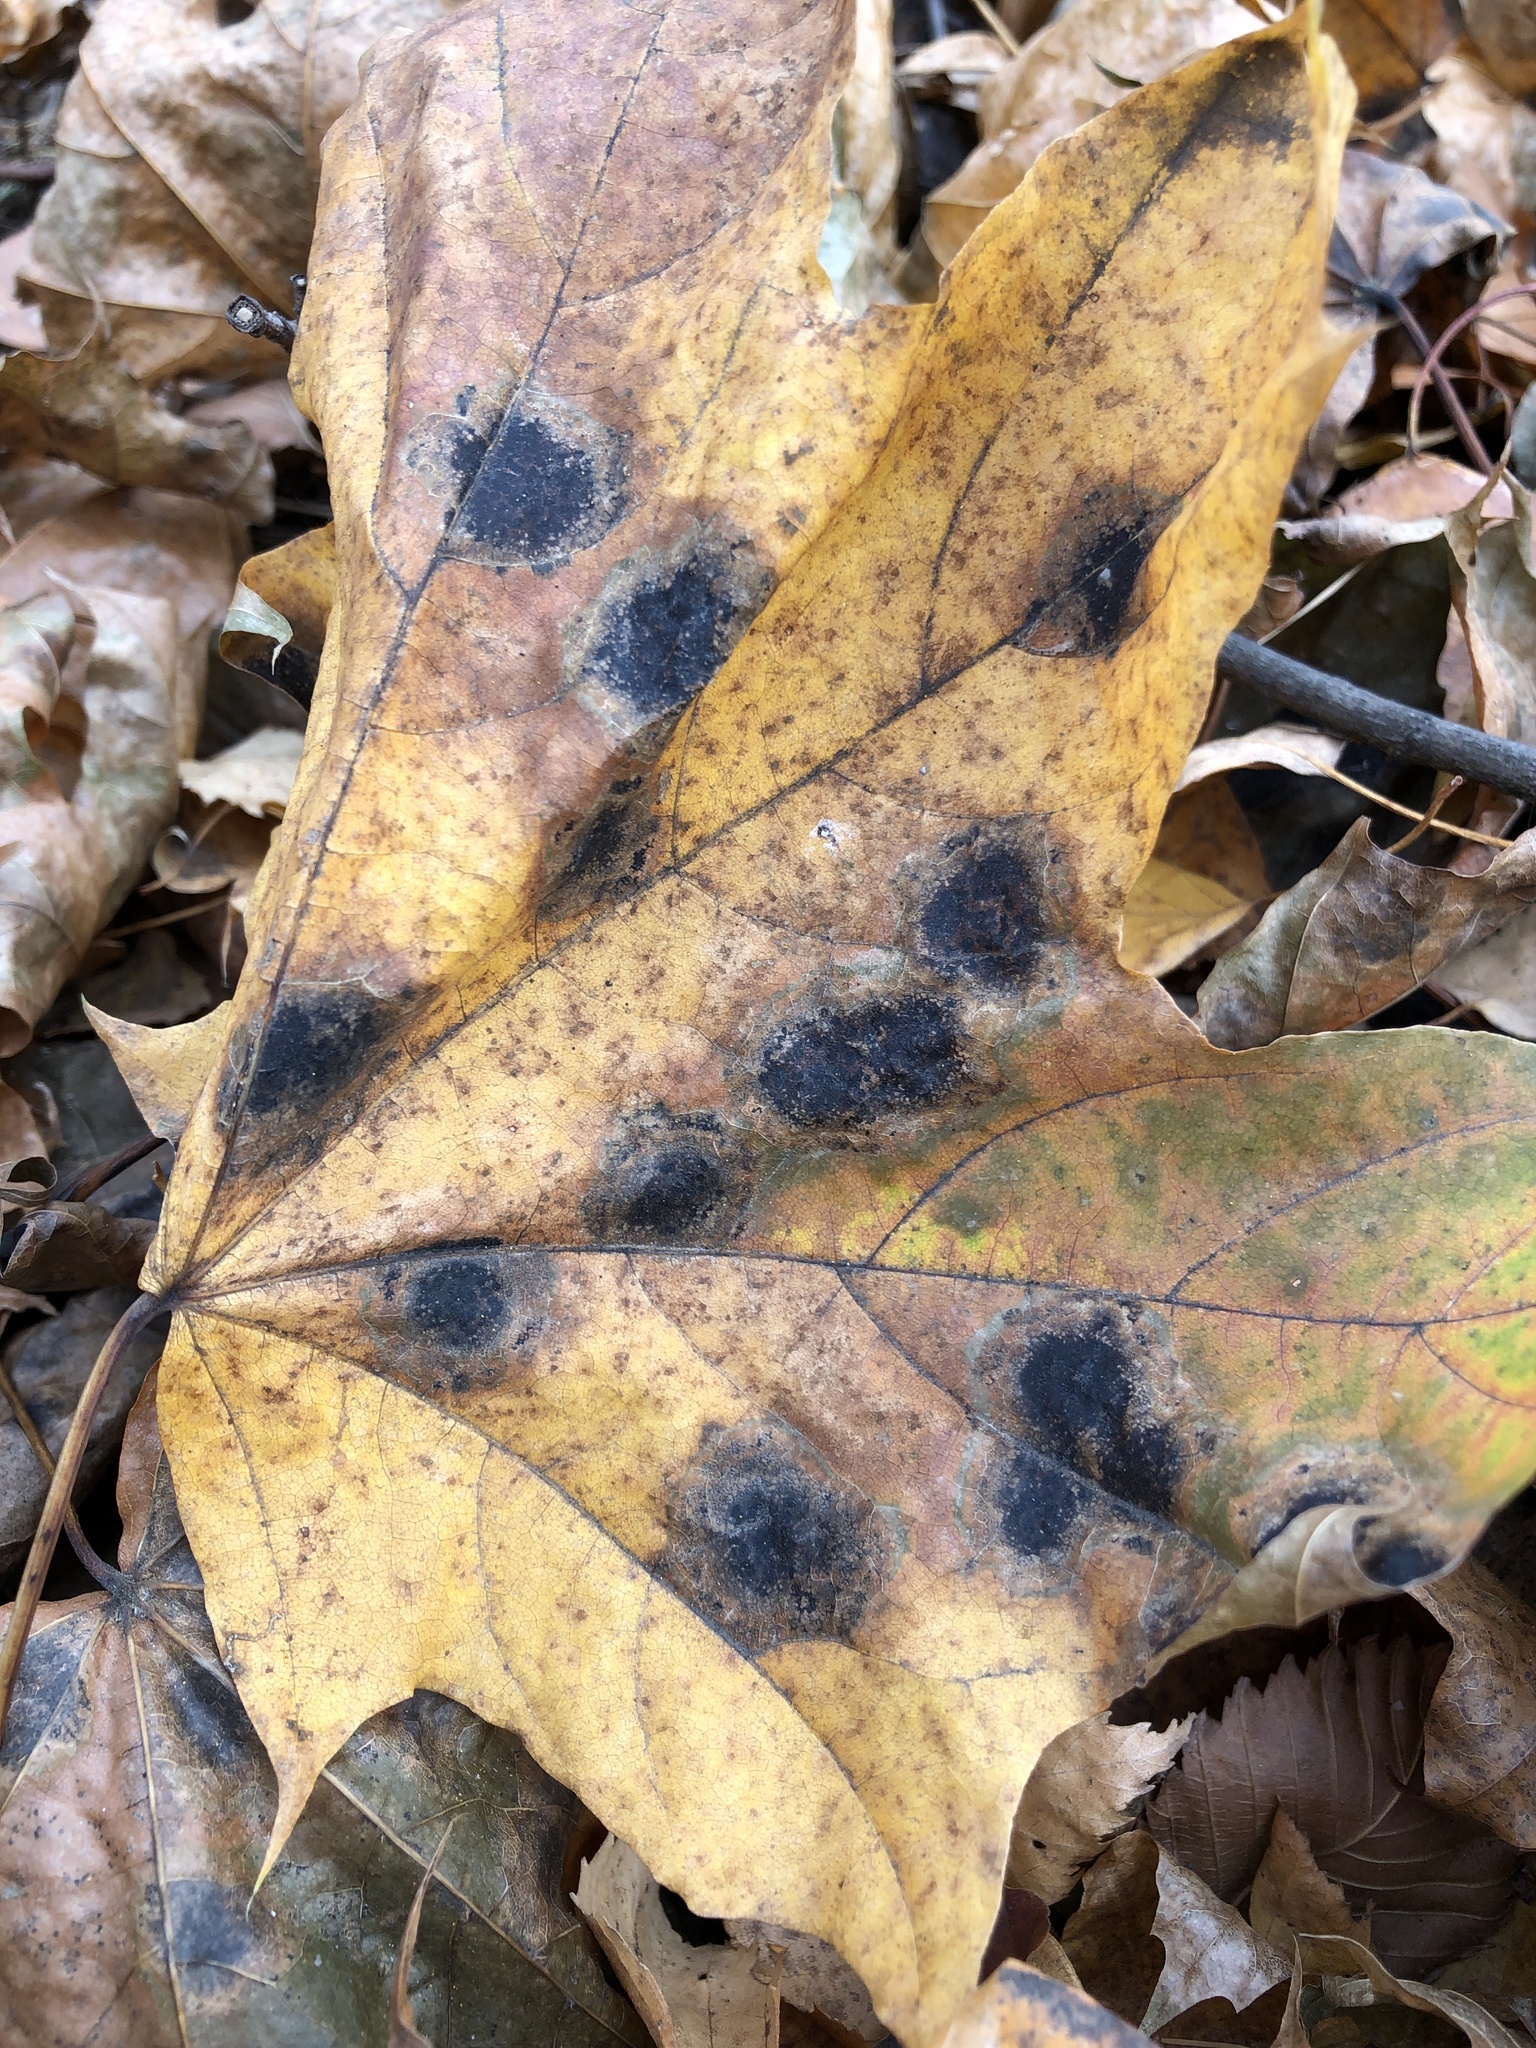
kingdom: Fungi
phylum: Ascomycota
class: Leotiomycetes
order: Rhytismatales
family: Rhytismataceae
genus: Rhytisma
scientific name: Rhytisma acerinum
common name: European tar spot
